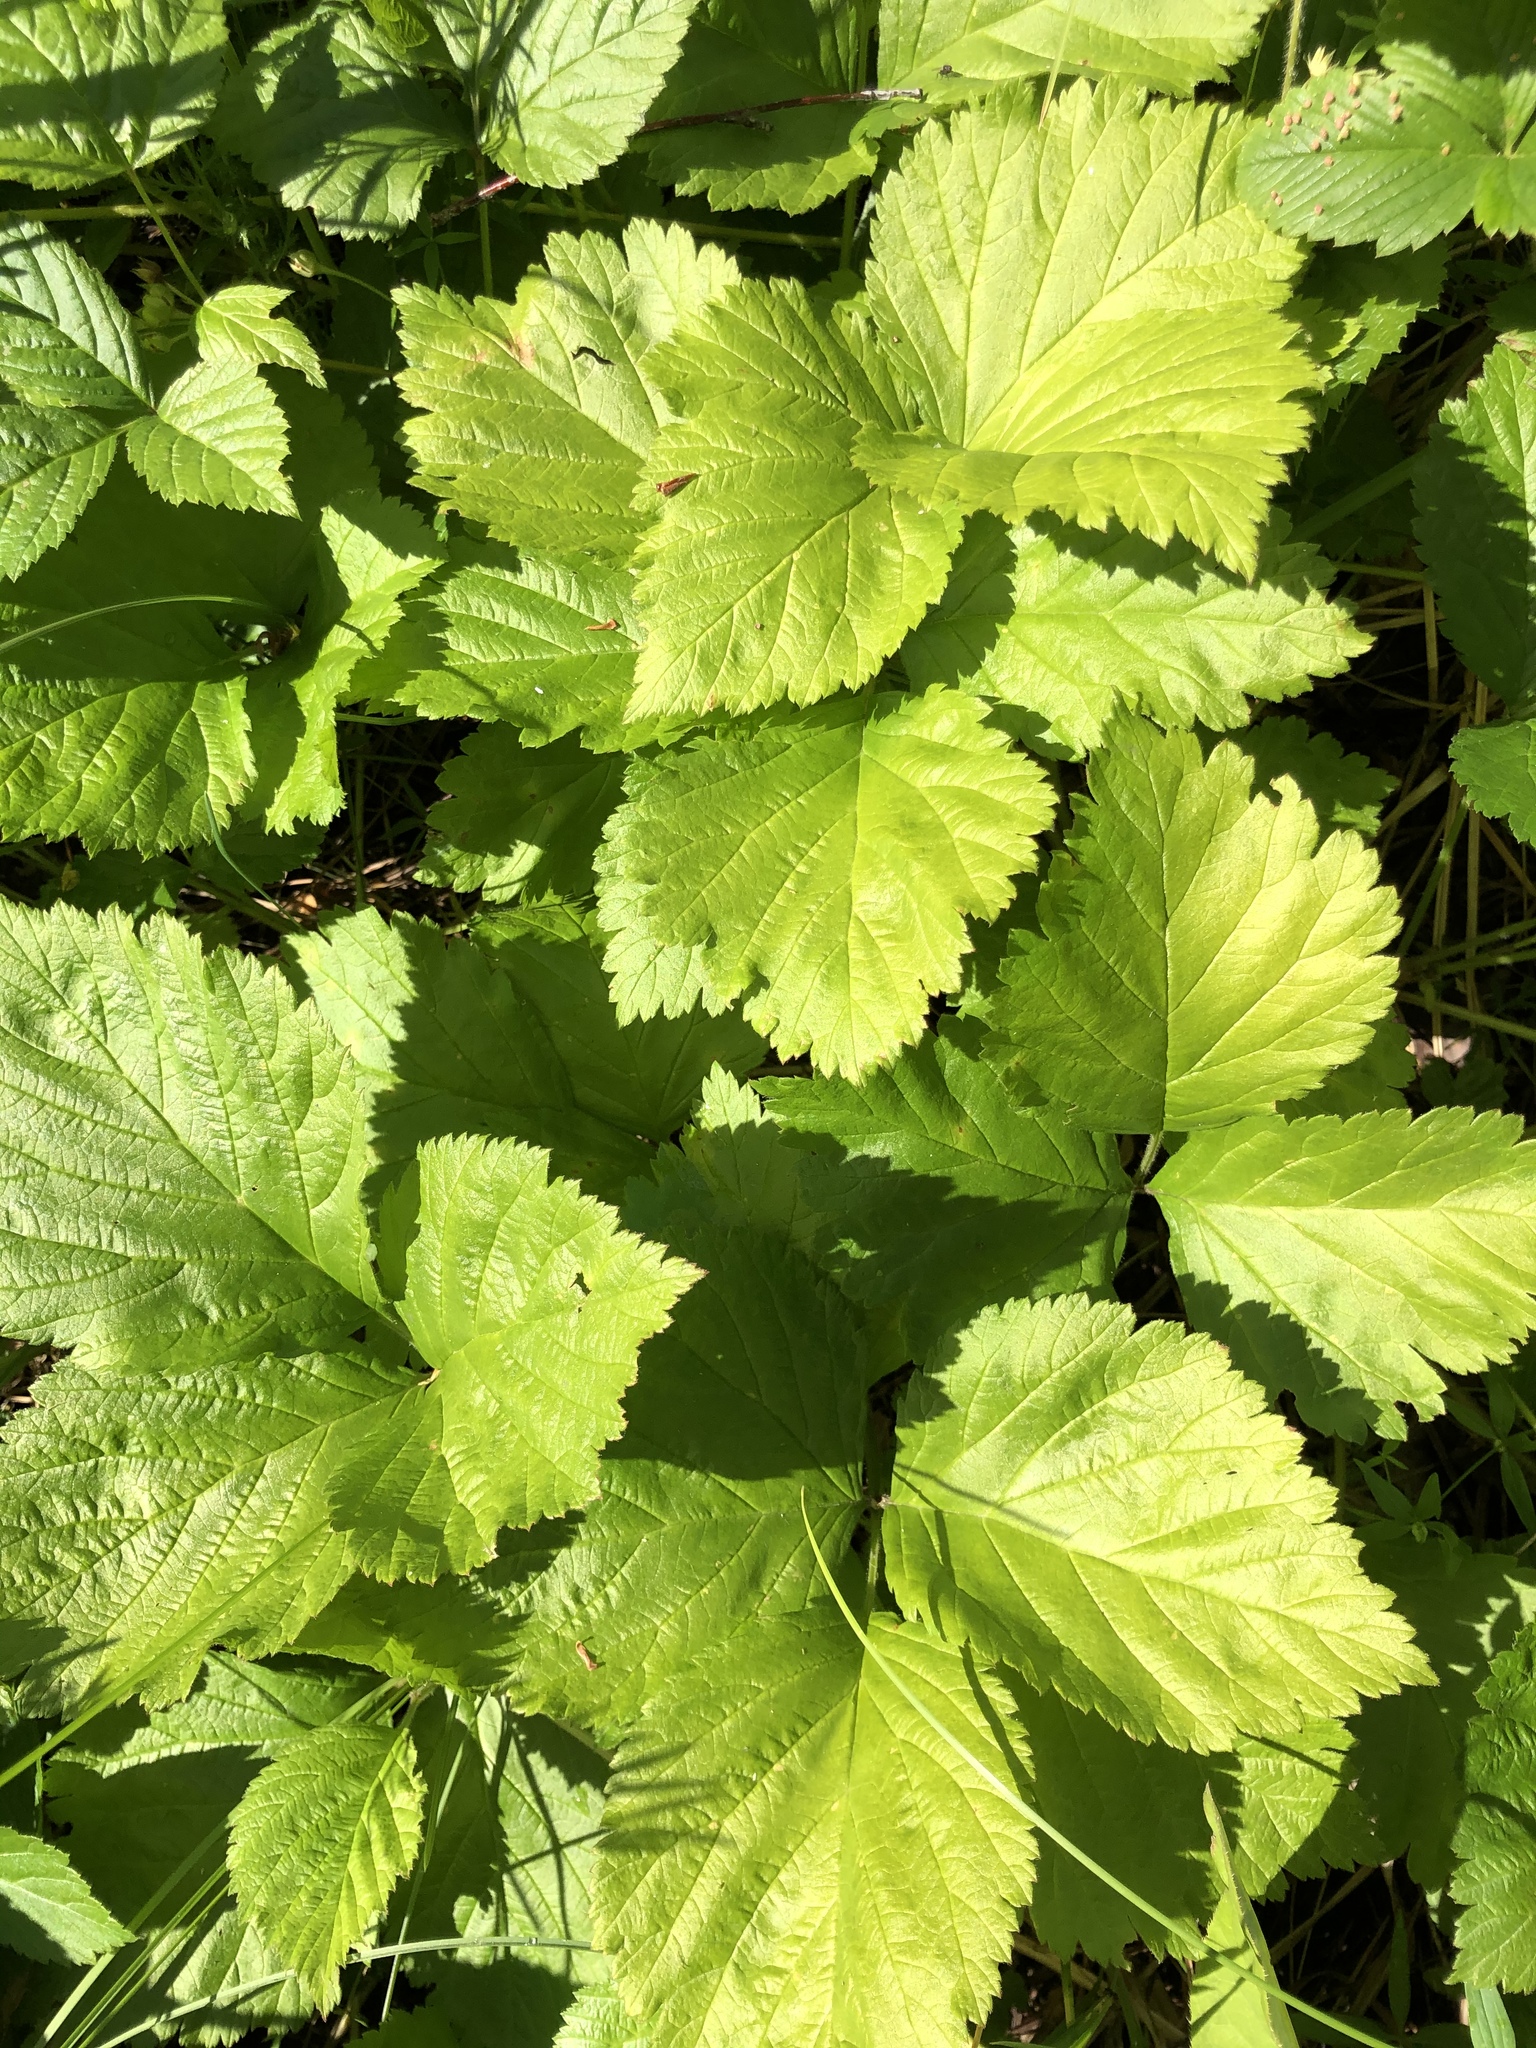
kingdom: Plantae
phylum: Tracheophyta
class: Magnoliopsida
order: Rosales
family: Rosaceae
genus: Rubus
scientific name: Rubus saxatilis
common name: Stone bramble
